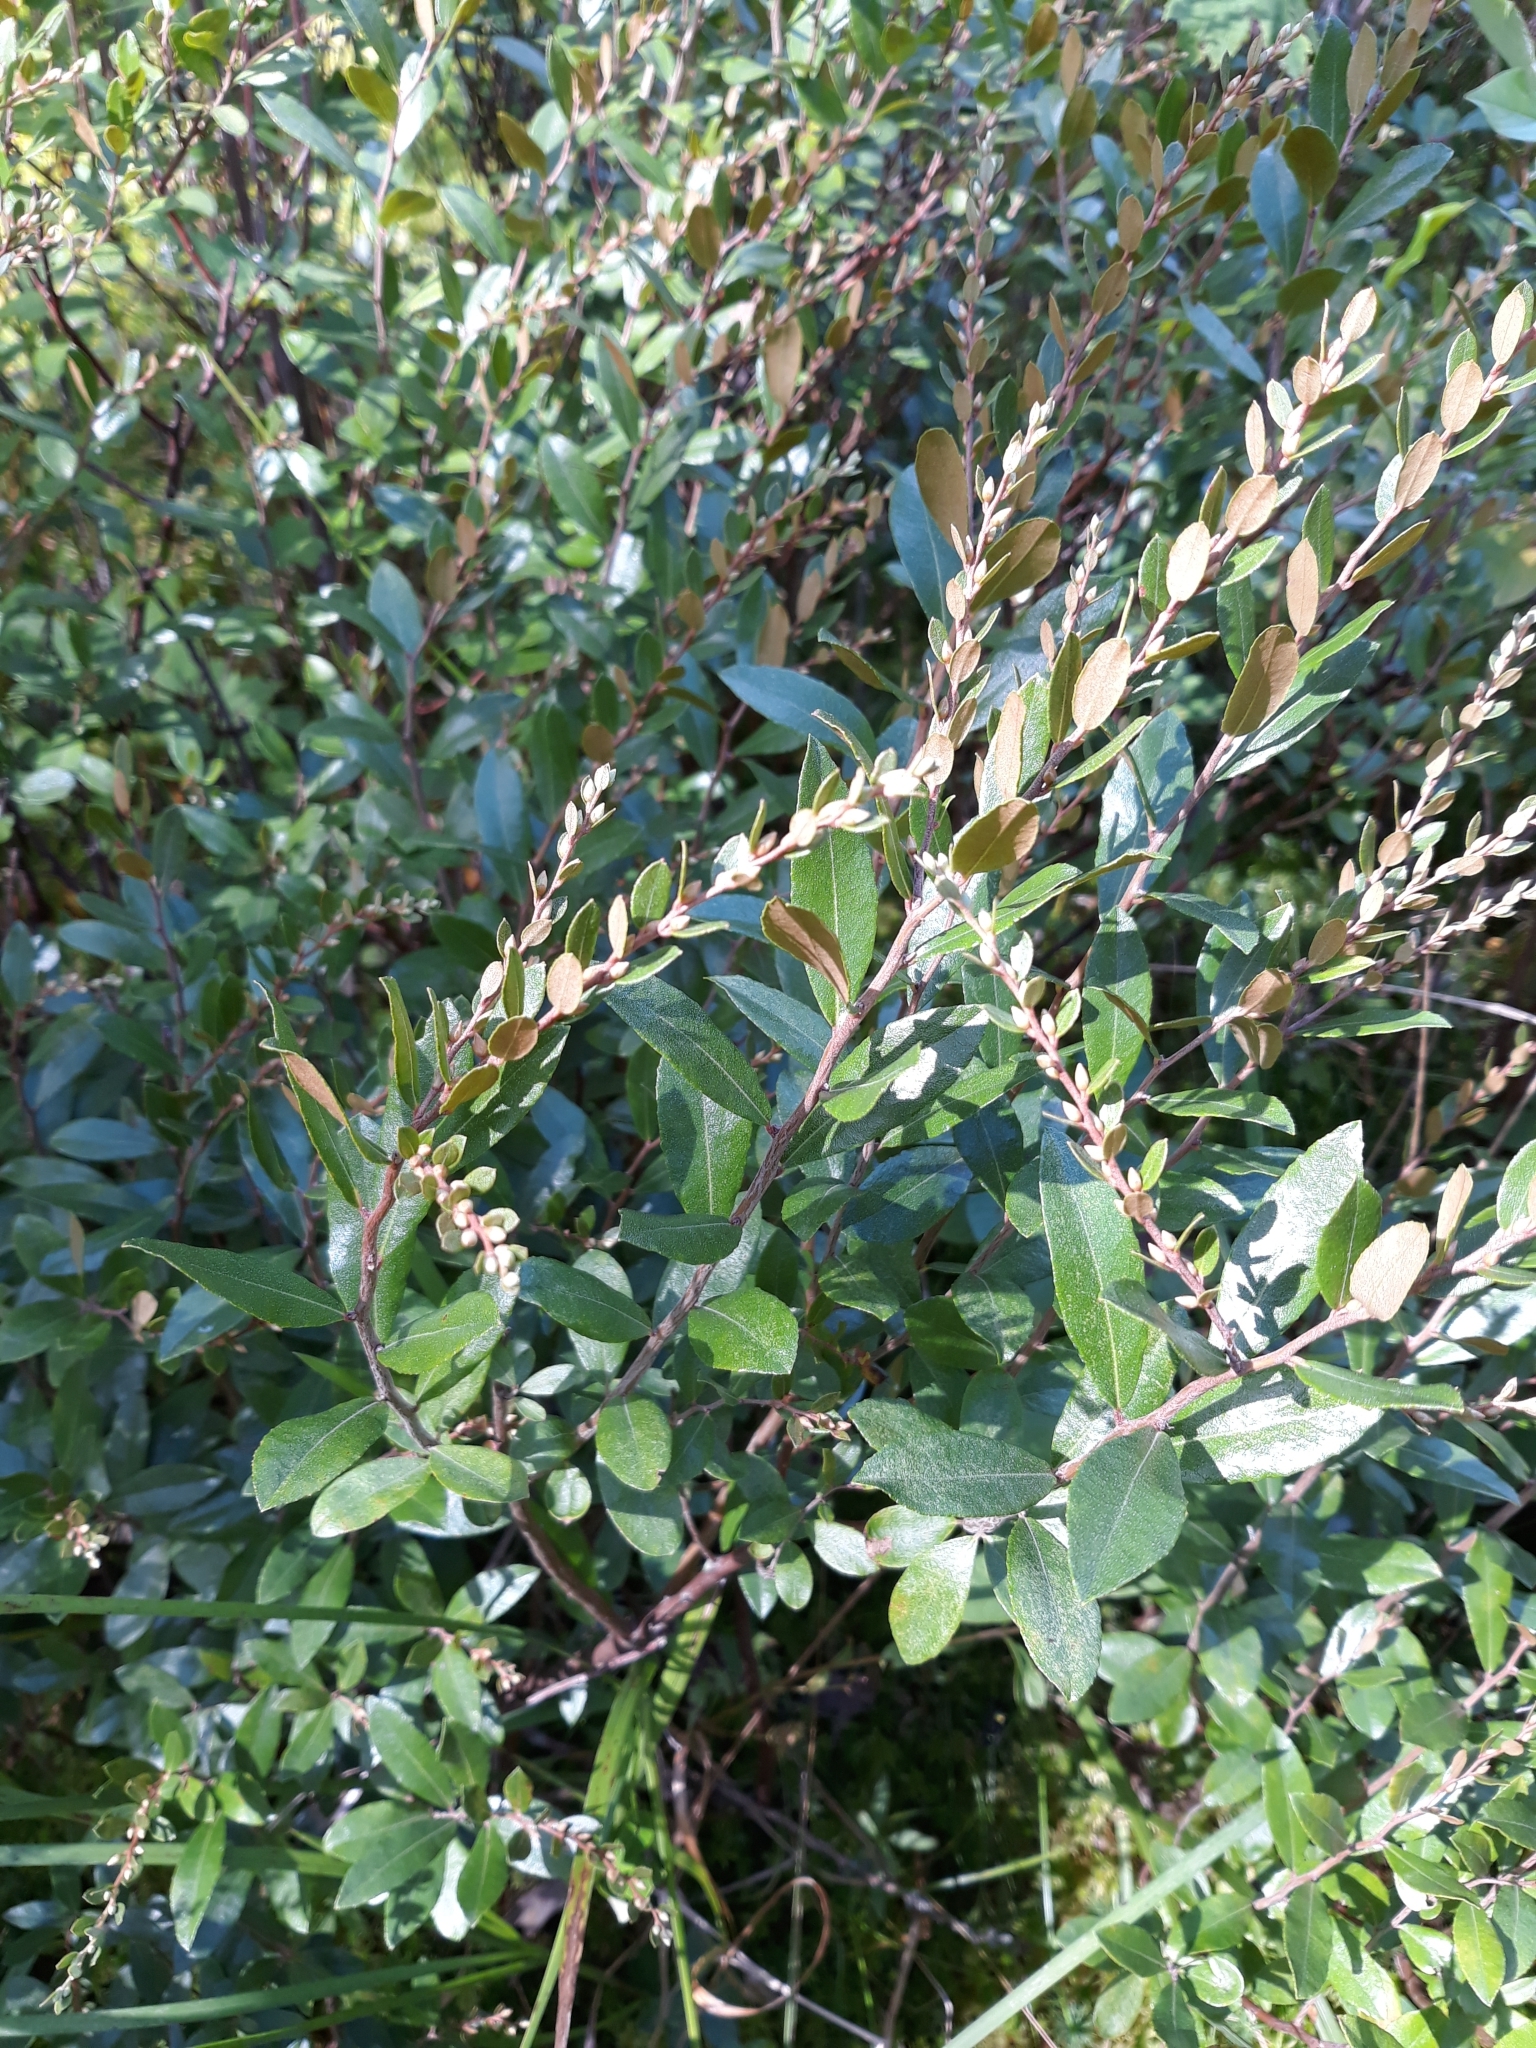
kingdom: Plantae
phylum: Tracheophyta
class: Magnoliopsida
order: Ericales
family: Ericaceae
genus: Chamaedaphne
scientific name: Chamaedaphne calyculata
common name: Leatherleaf
